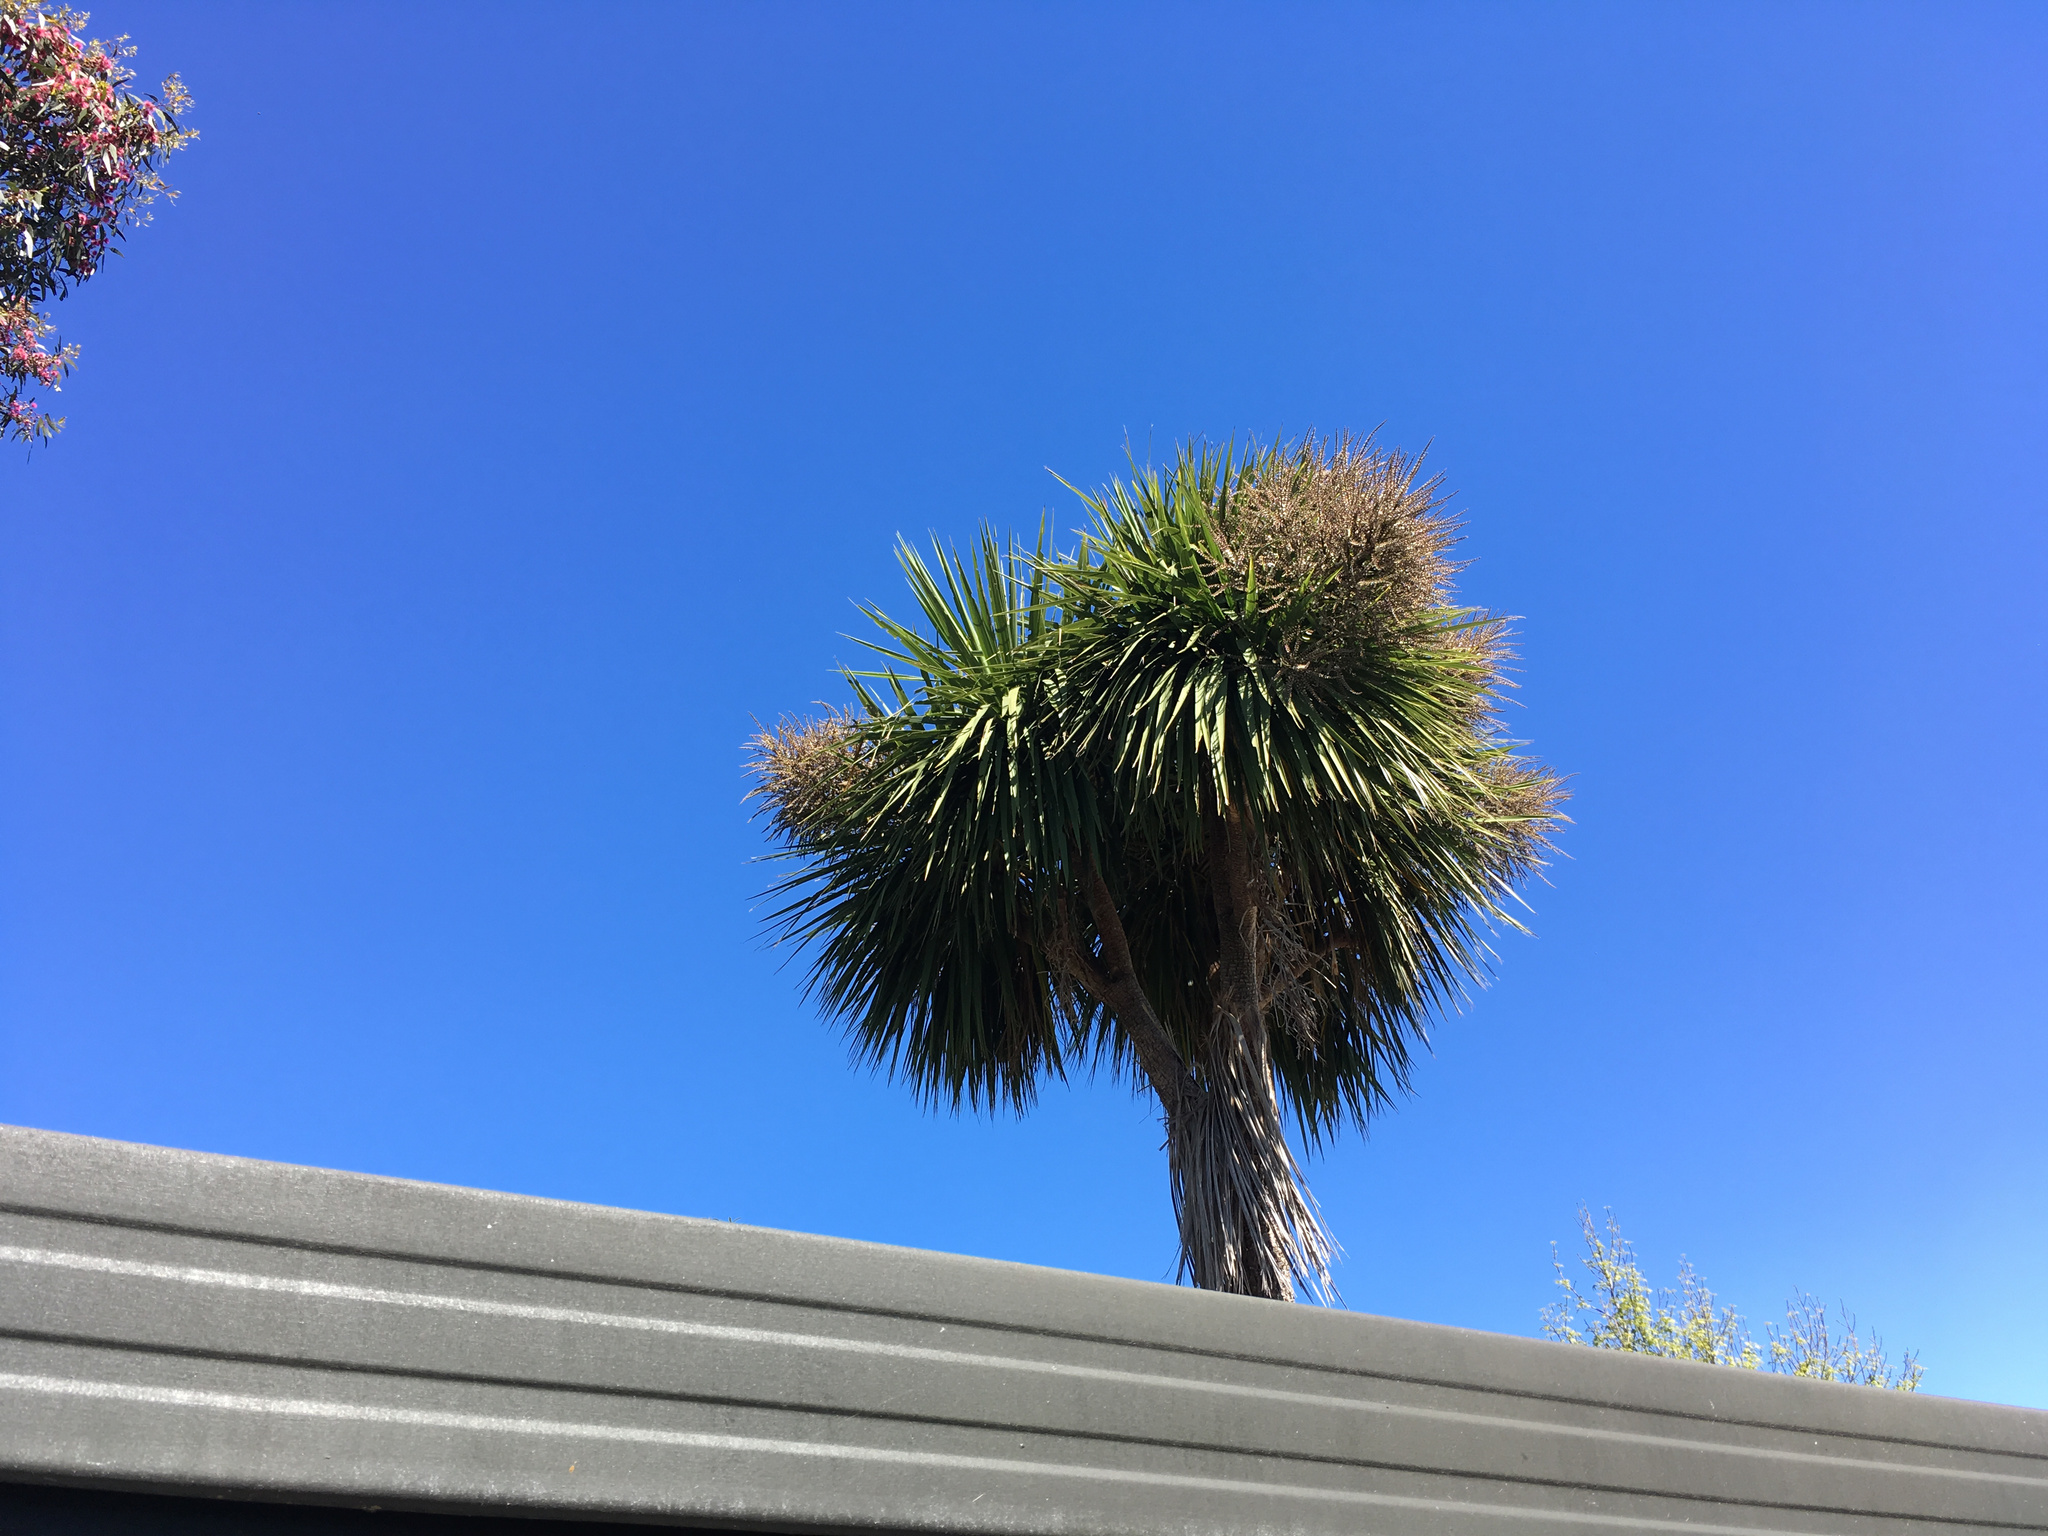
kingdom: Plantae
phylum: Tracheophyta
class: Liliopsida
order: Asparagales
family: Asparagaceae
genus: Cordyline
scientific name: Cordyline australis
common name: Cabbage-palm
